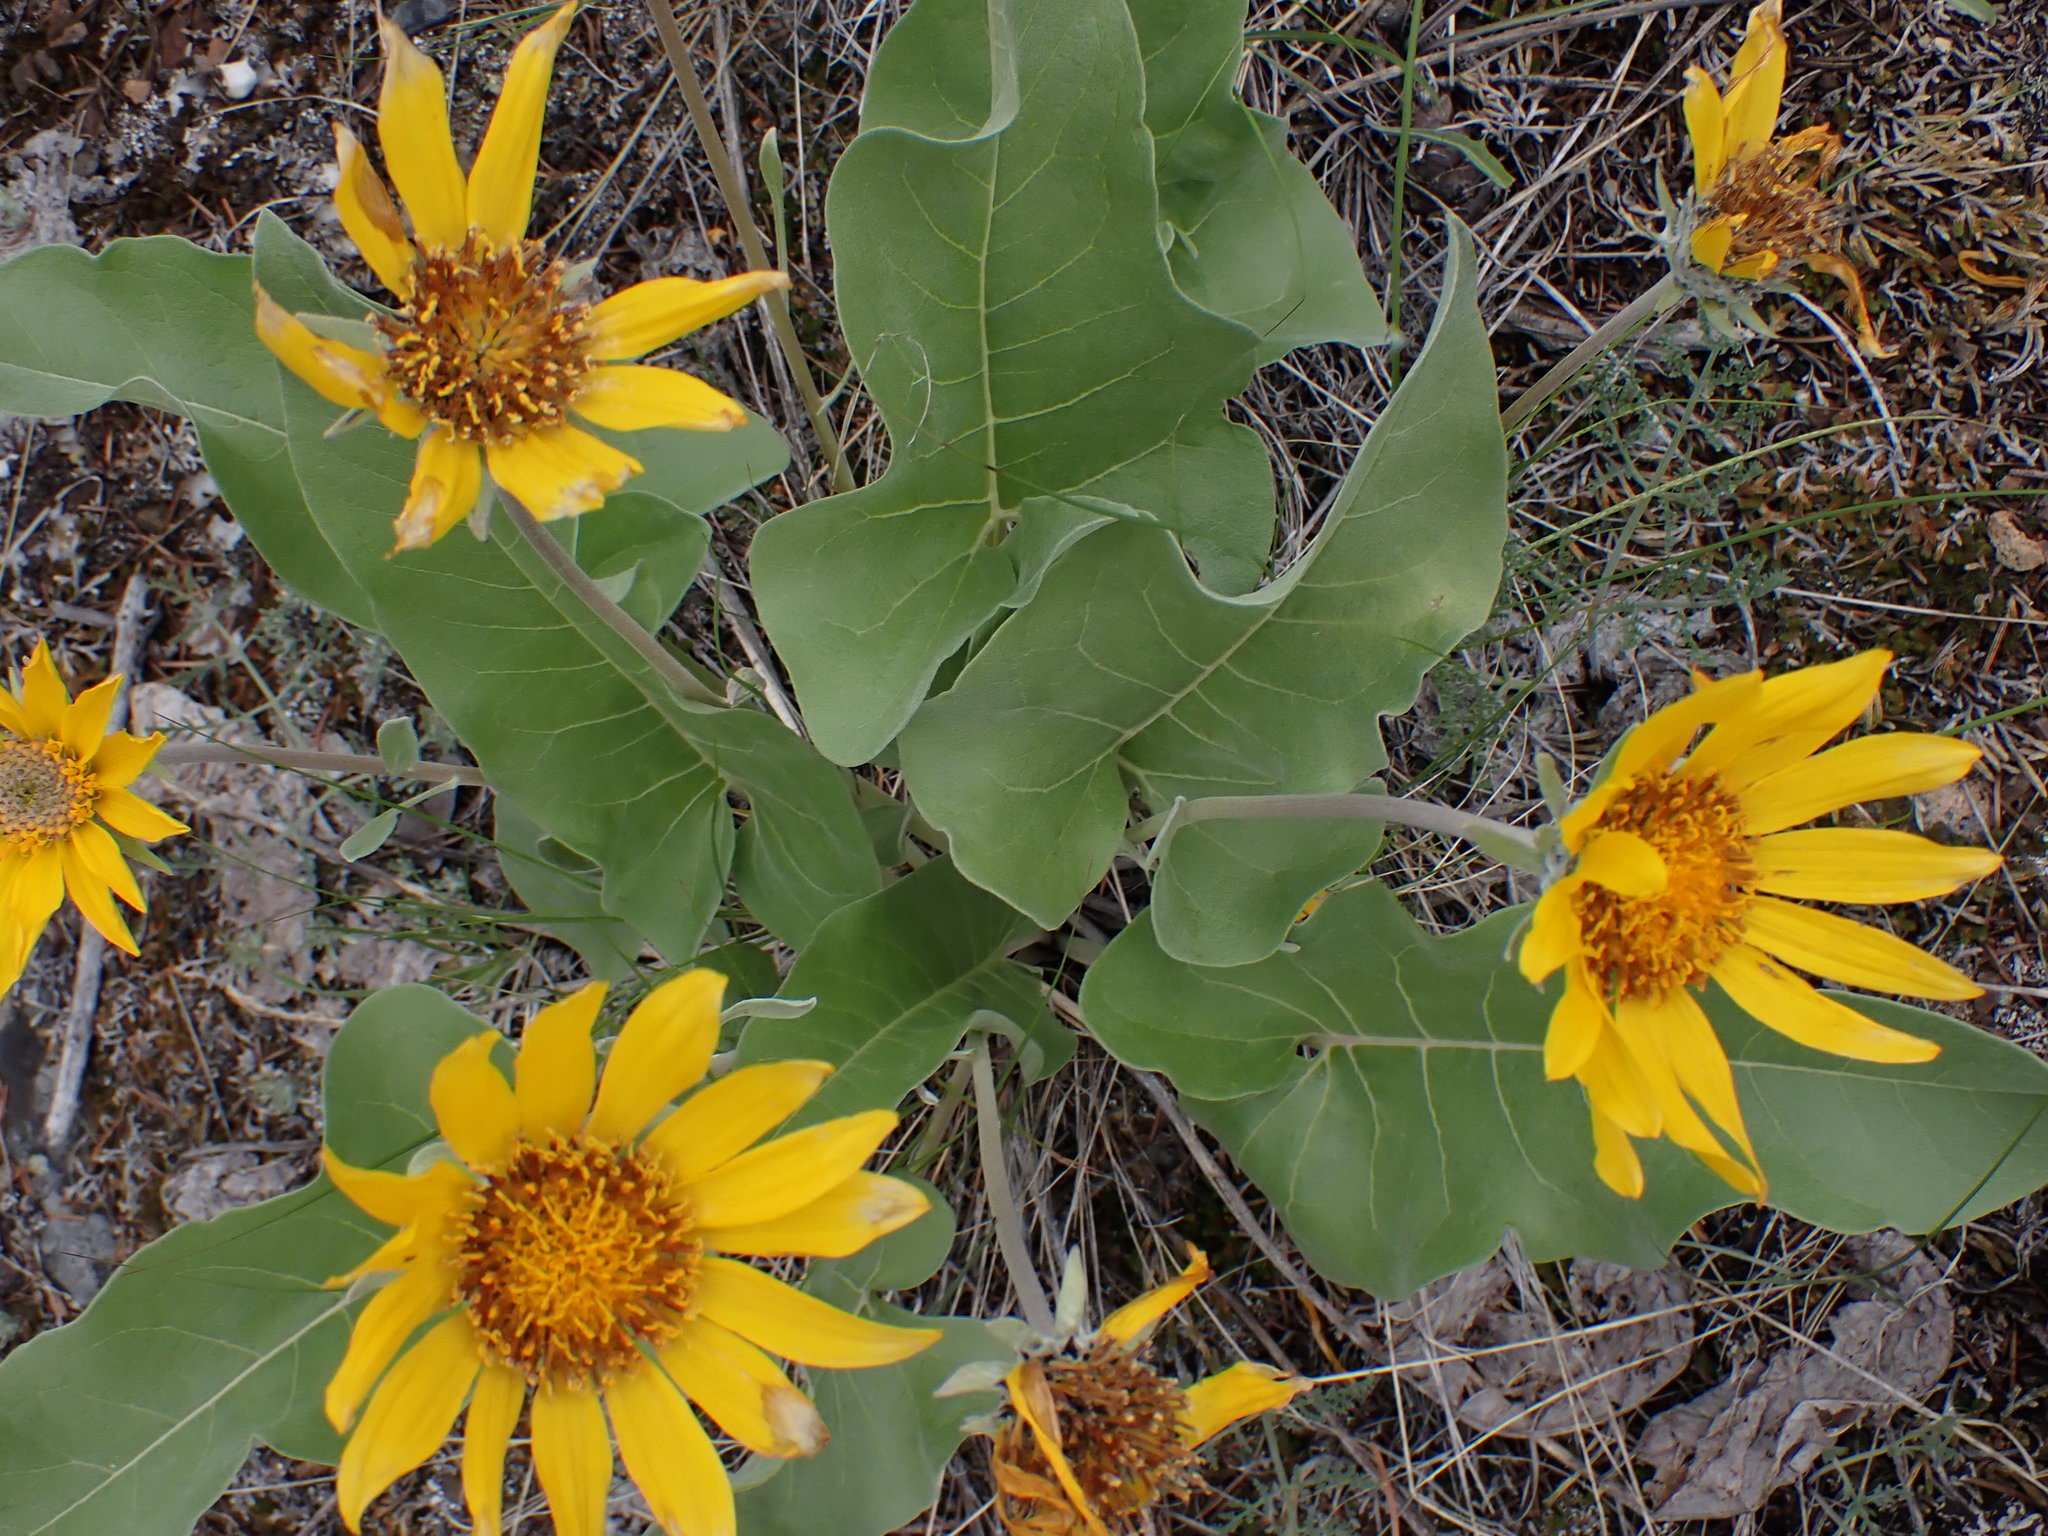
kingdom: Plantae
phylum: Tracheophyta
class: Magnoliopsida
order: Asterales
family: Asteraceae
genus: Wyethia
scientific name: Wyethia sagittata
